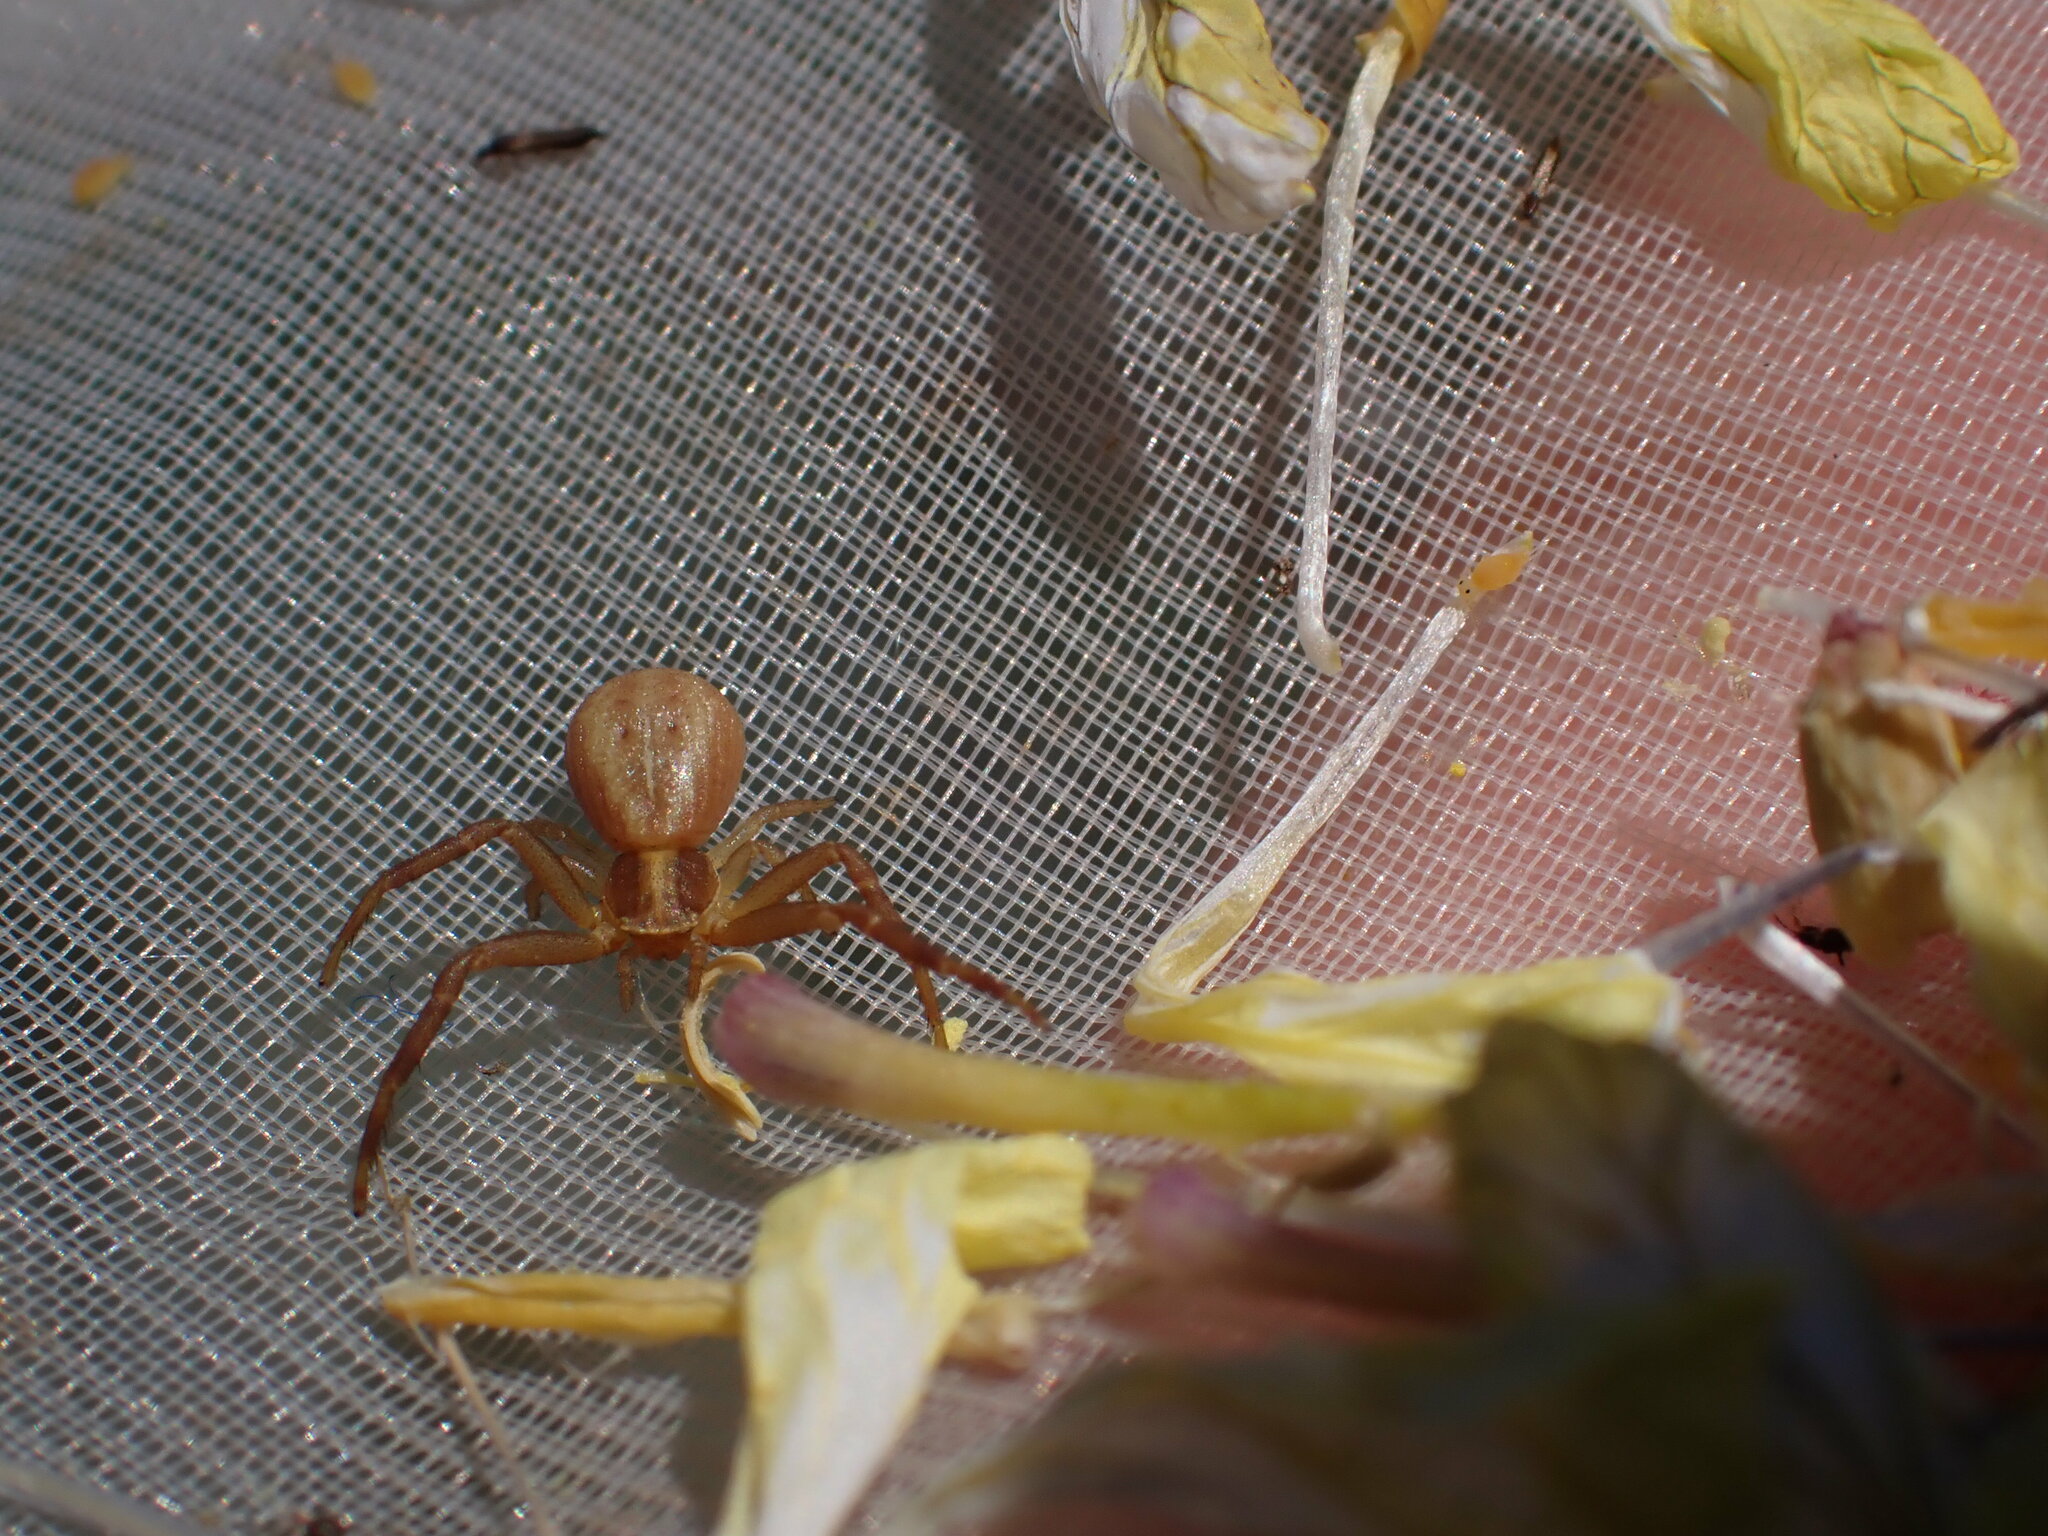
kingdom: Animalia
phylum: Arthropoda
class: Arachnida
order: Araneae
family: Thomisidae
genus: Runcinia
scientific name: Runcinia grammica
